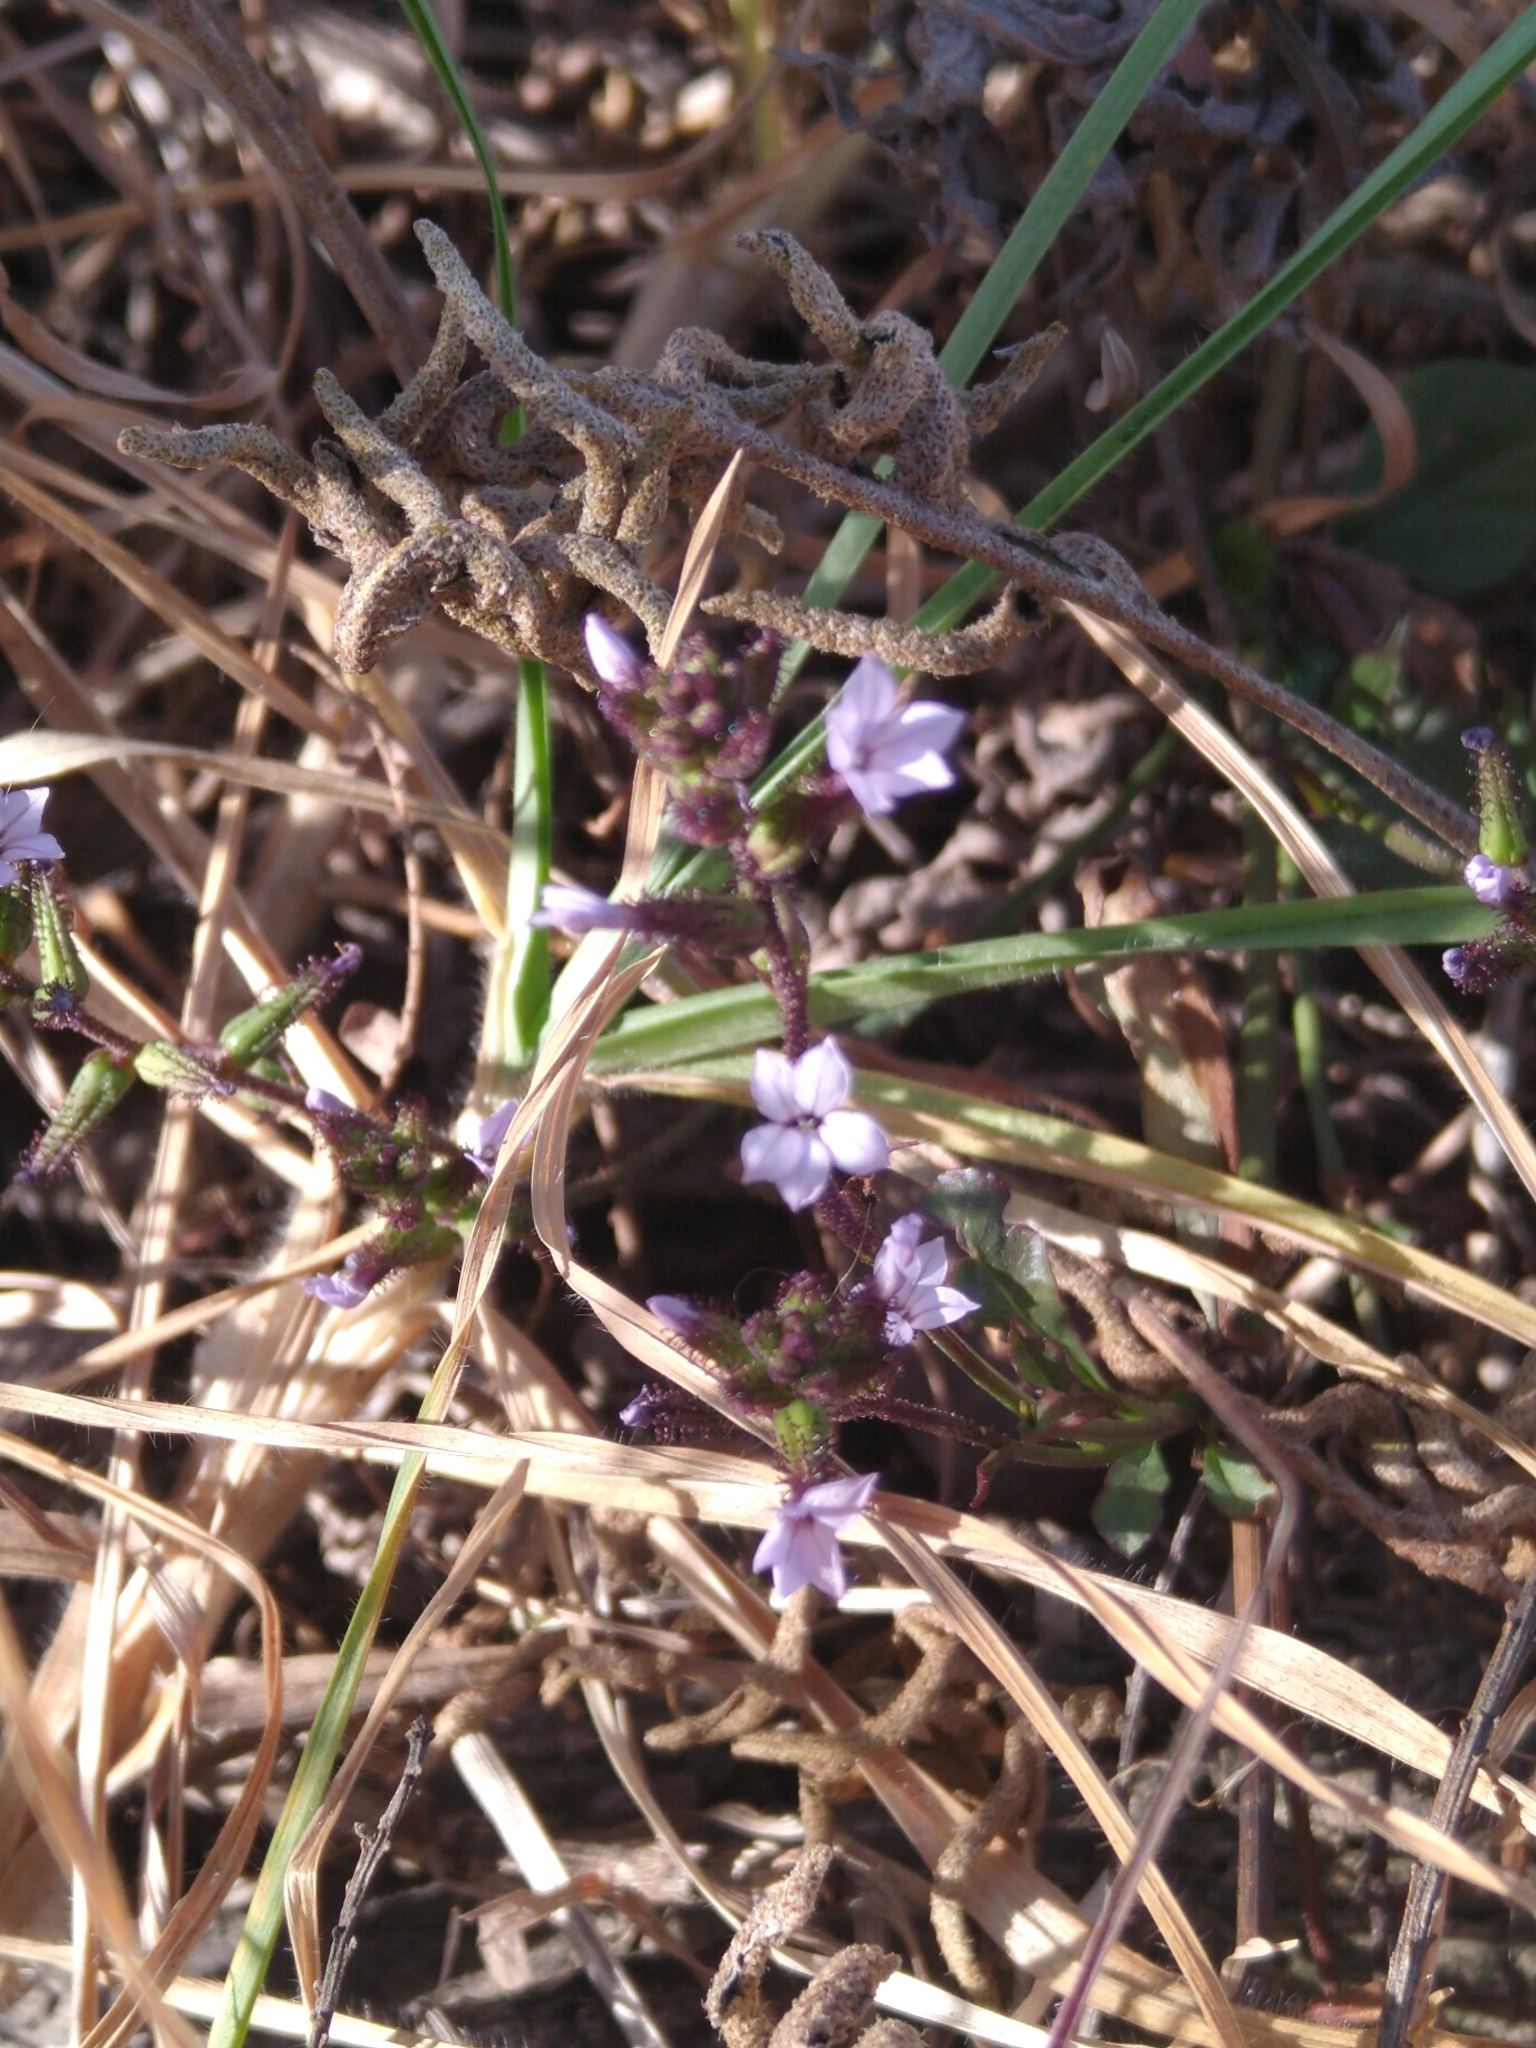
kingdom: Plantae
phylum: Tracheophyta
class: Magnoliopsida
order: Caryophyllales
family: Plumbaginaceae
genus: Plumbago
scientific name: Plumbago pulchella
